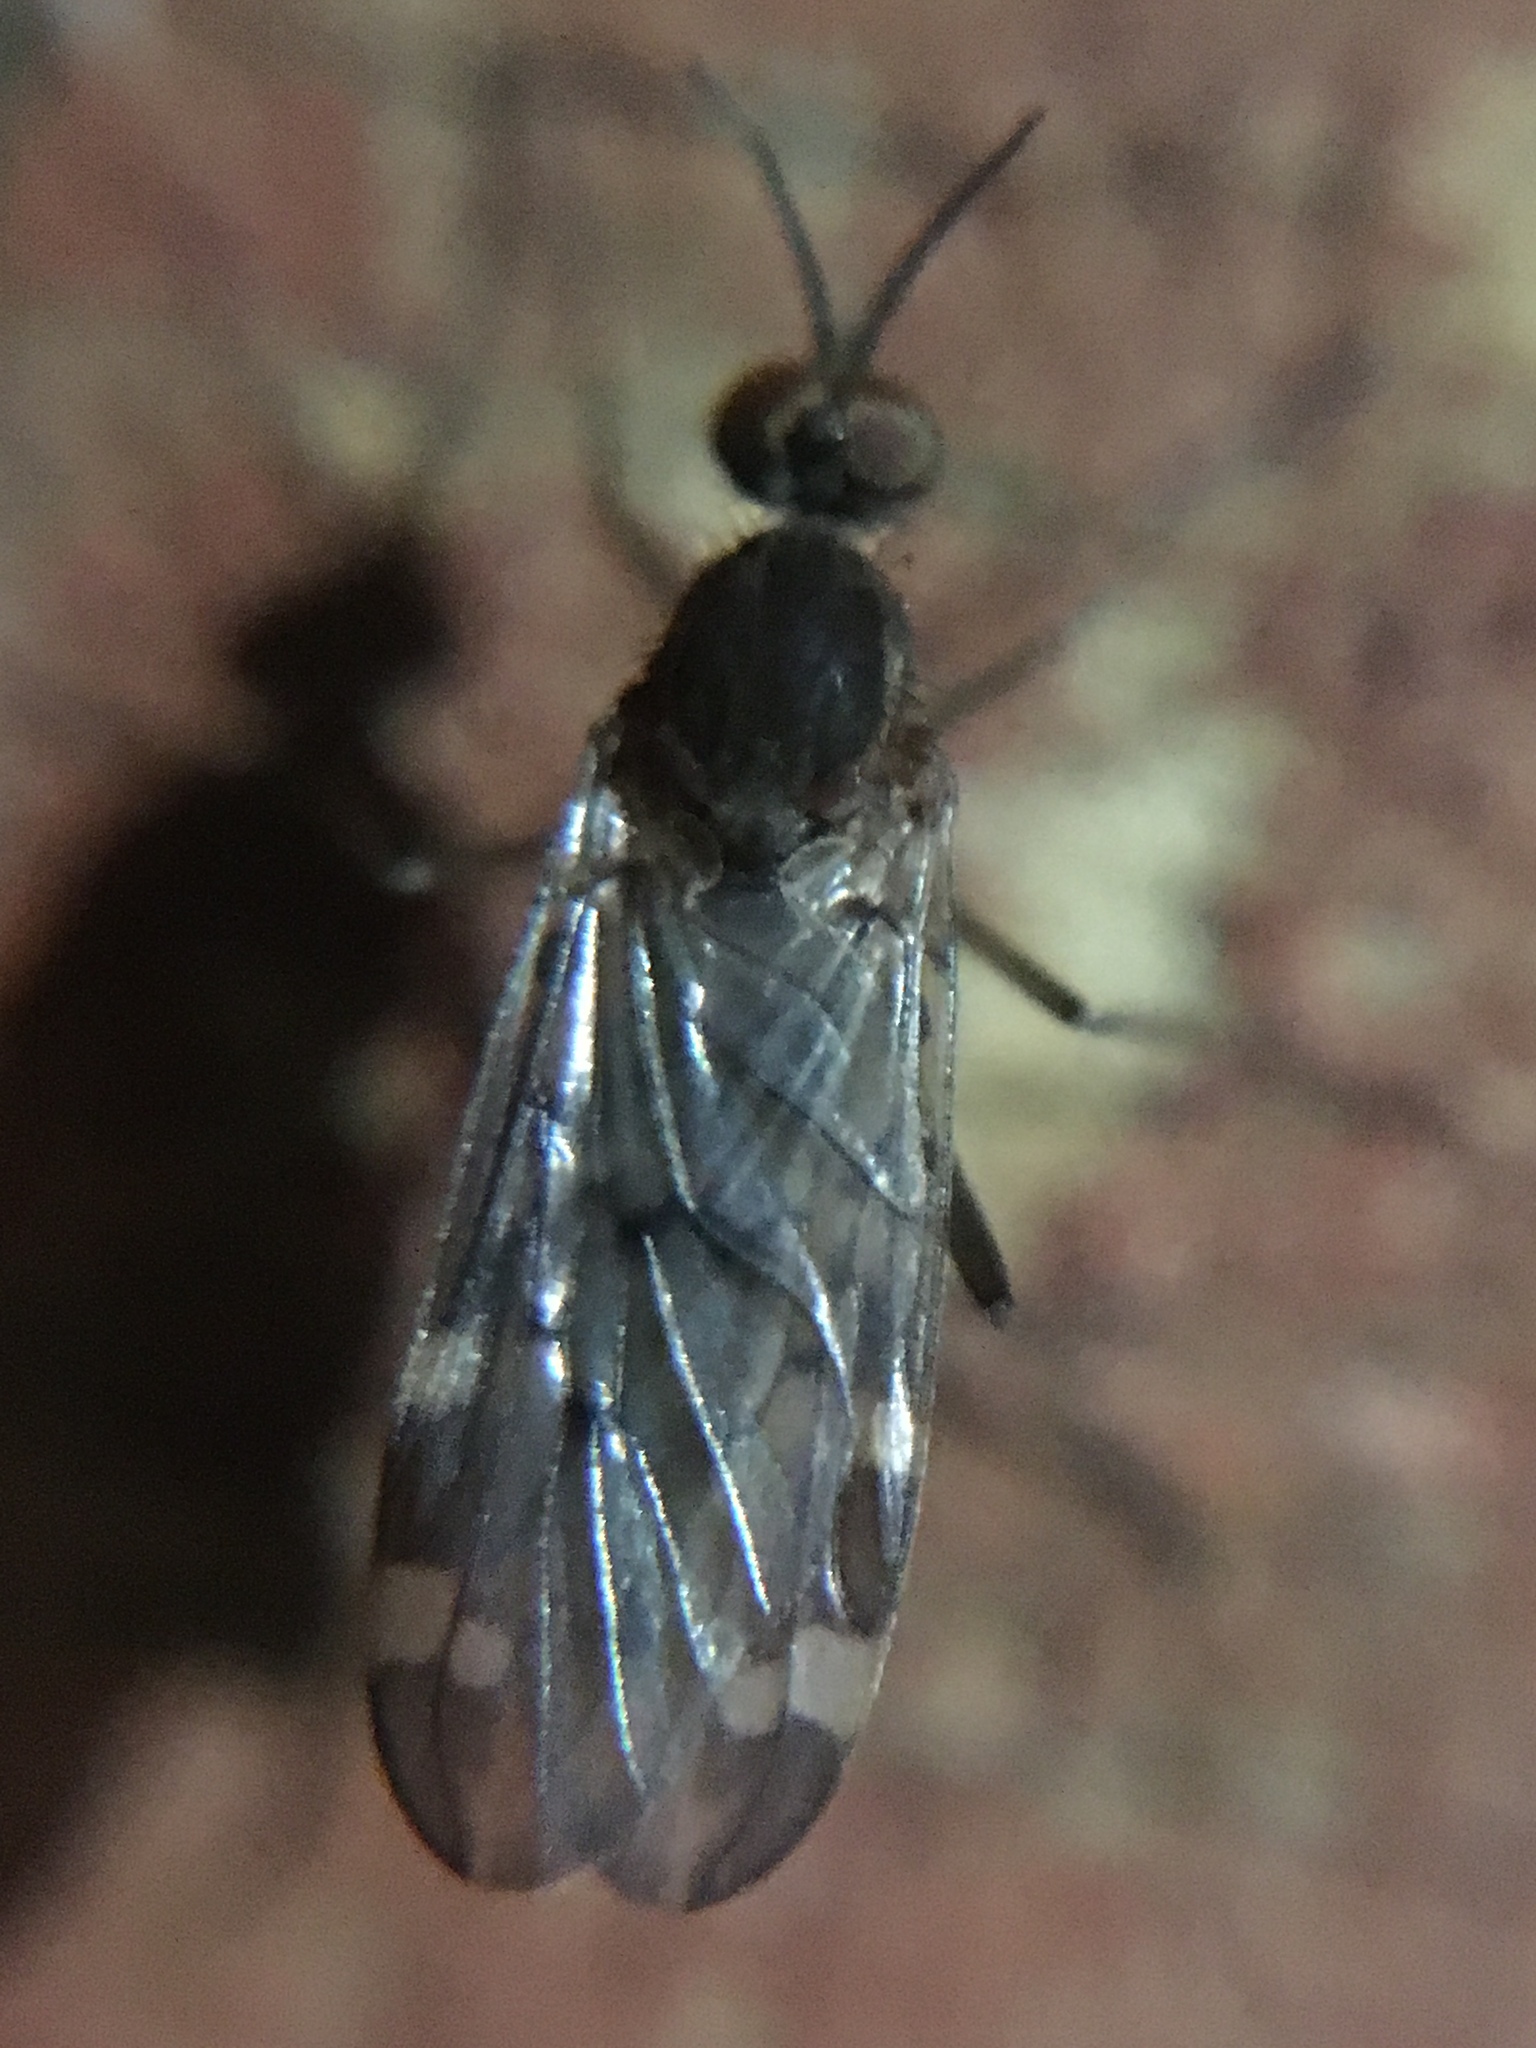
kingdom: Animalia
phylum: Arthropoda
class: Insecta
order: Diptera
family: Anisopodidae
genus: Sylvicola
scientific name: Sylvicola alternata
